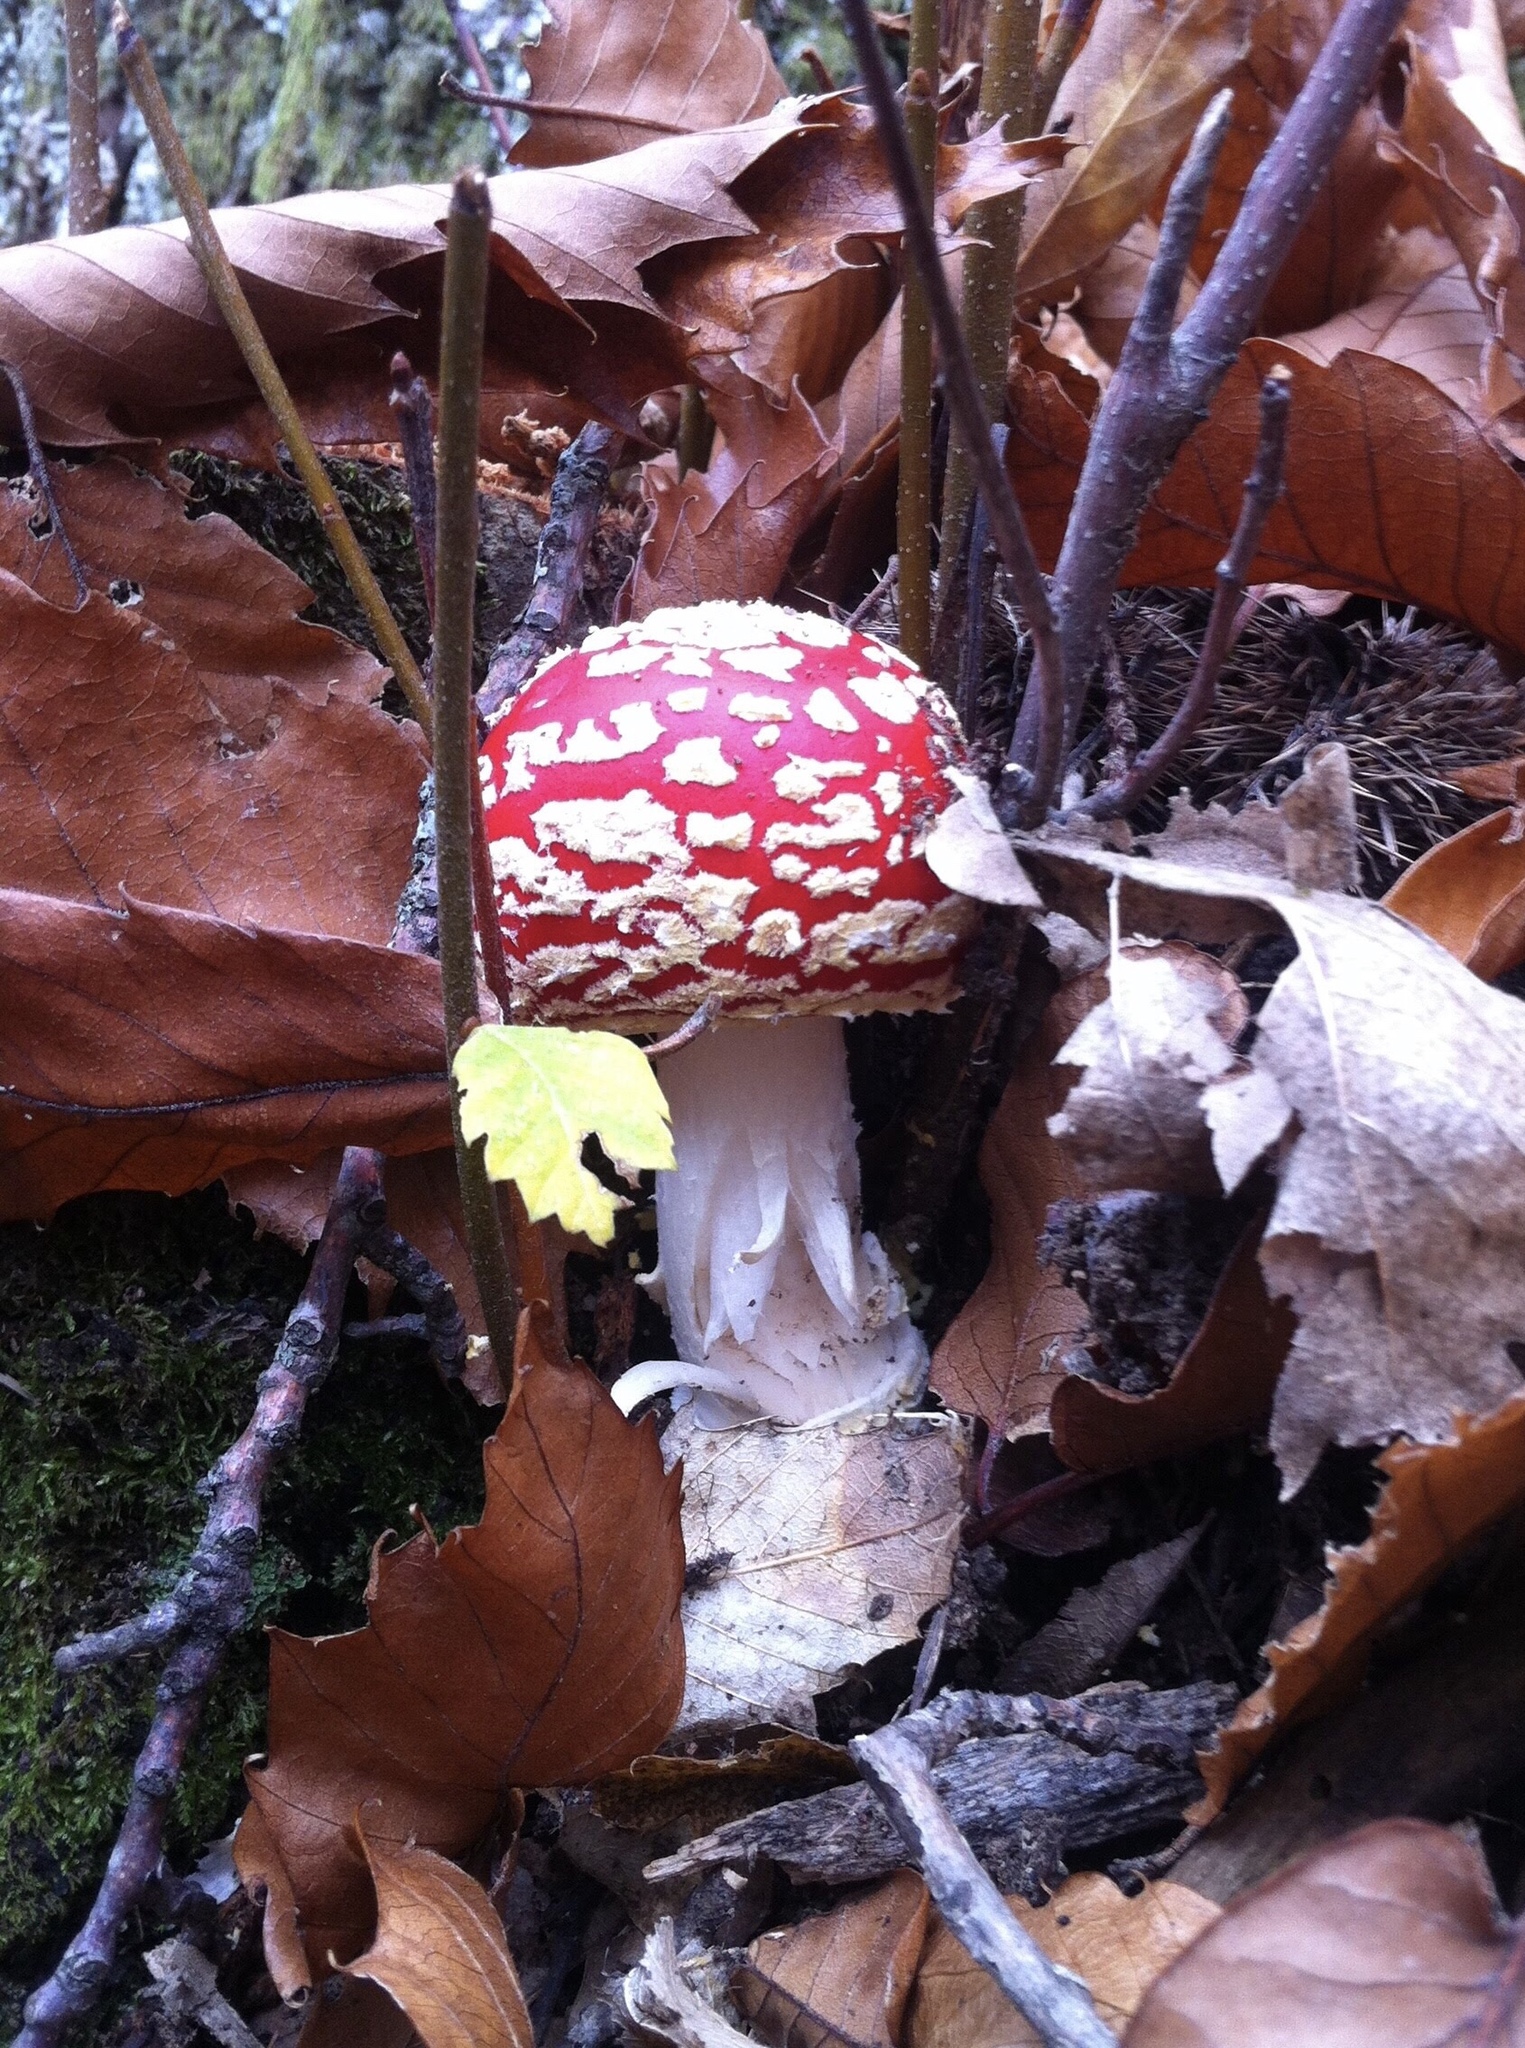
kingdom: Fungi
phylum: Basidiomycota
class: Agaricomycetes
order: Agaricales
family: Amanitaceae
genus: Amanita
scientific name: Amanita muscaria
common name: Fly agaric
